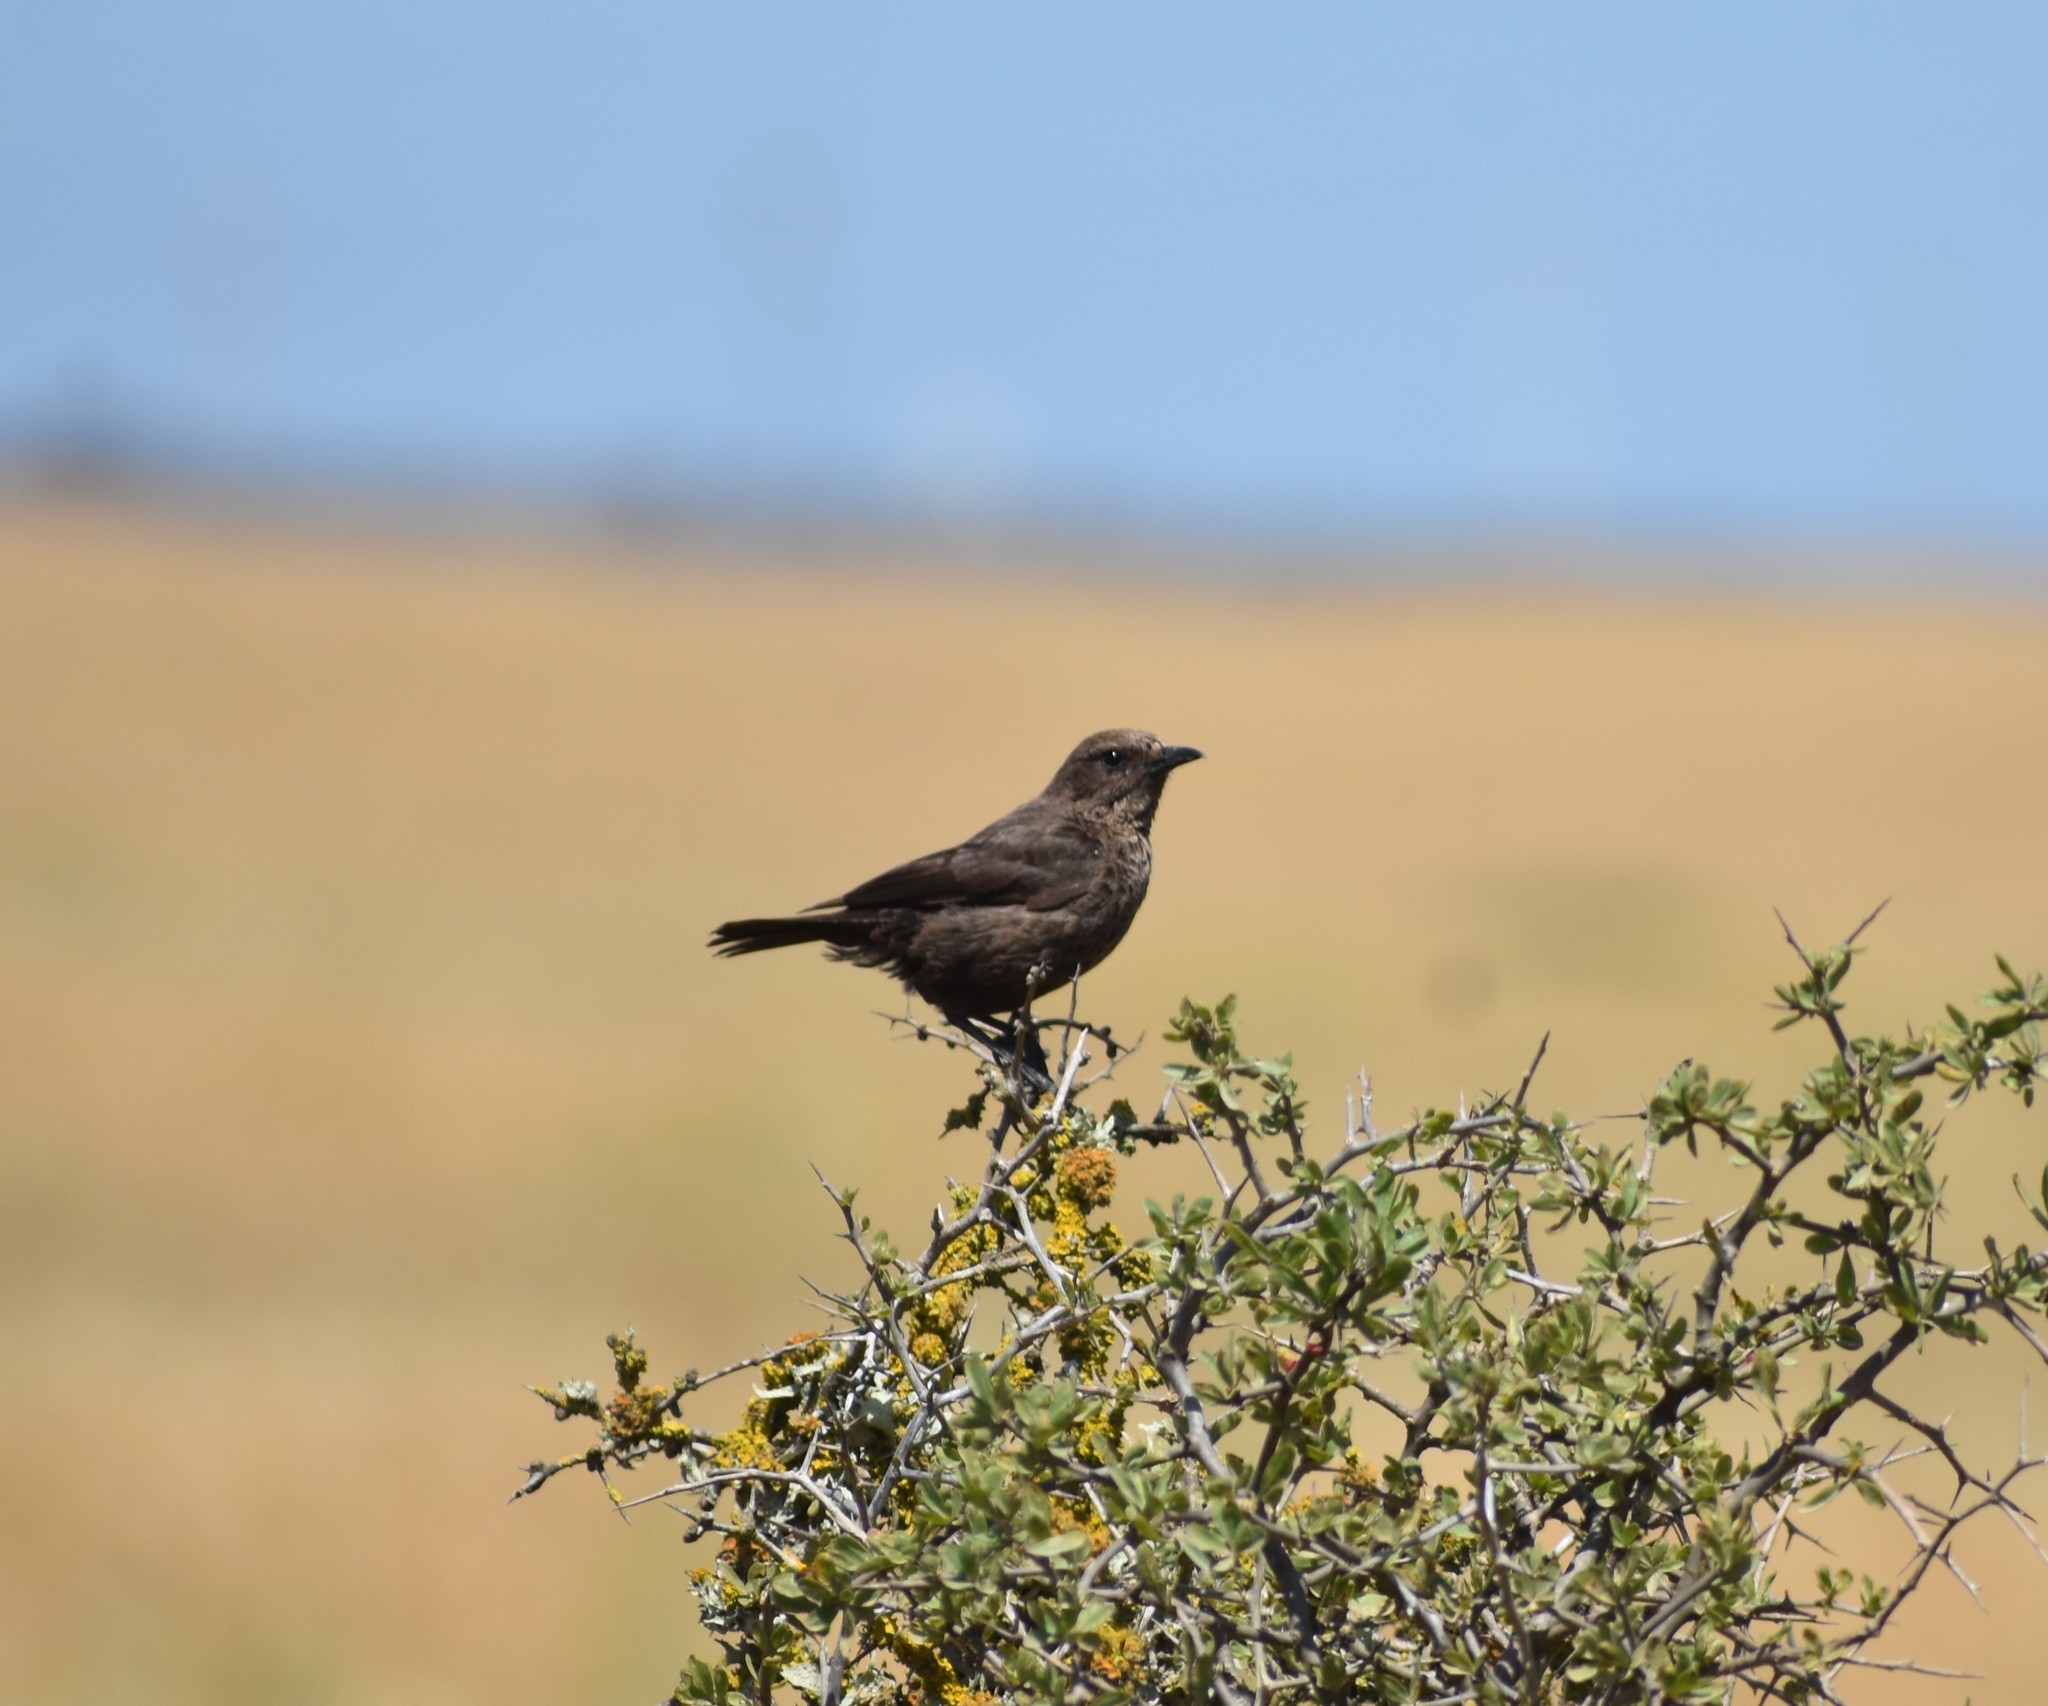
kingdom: Animalia
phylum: Chordata
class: Aves
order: Passeriformes
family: Muscicapidae
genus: Myrmecocichla
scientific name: Myrmecocichla formicivora
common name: Ant-eating chat
